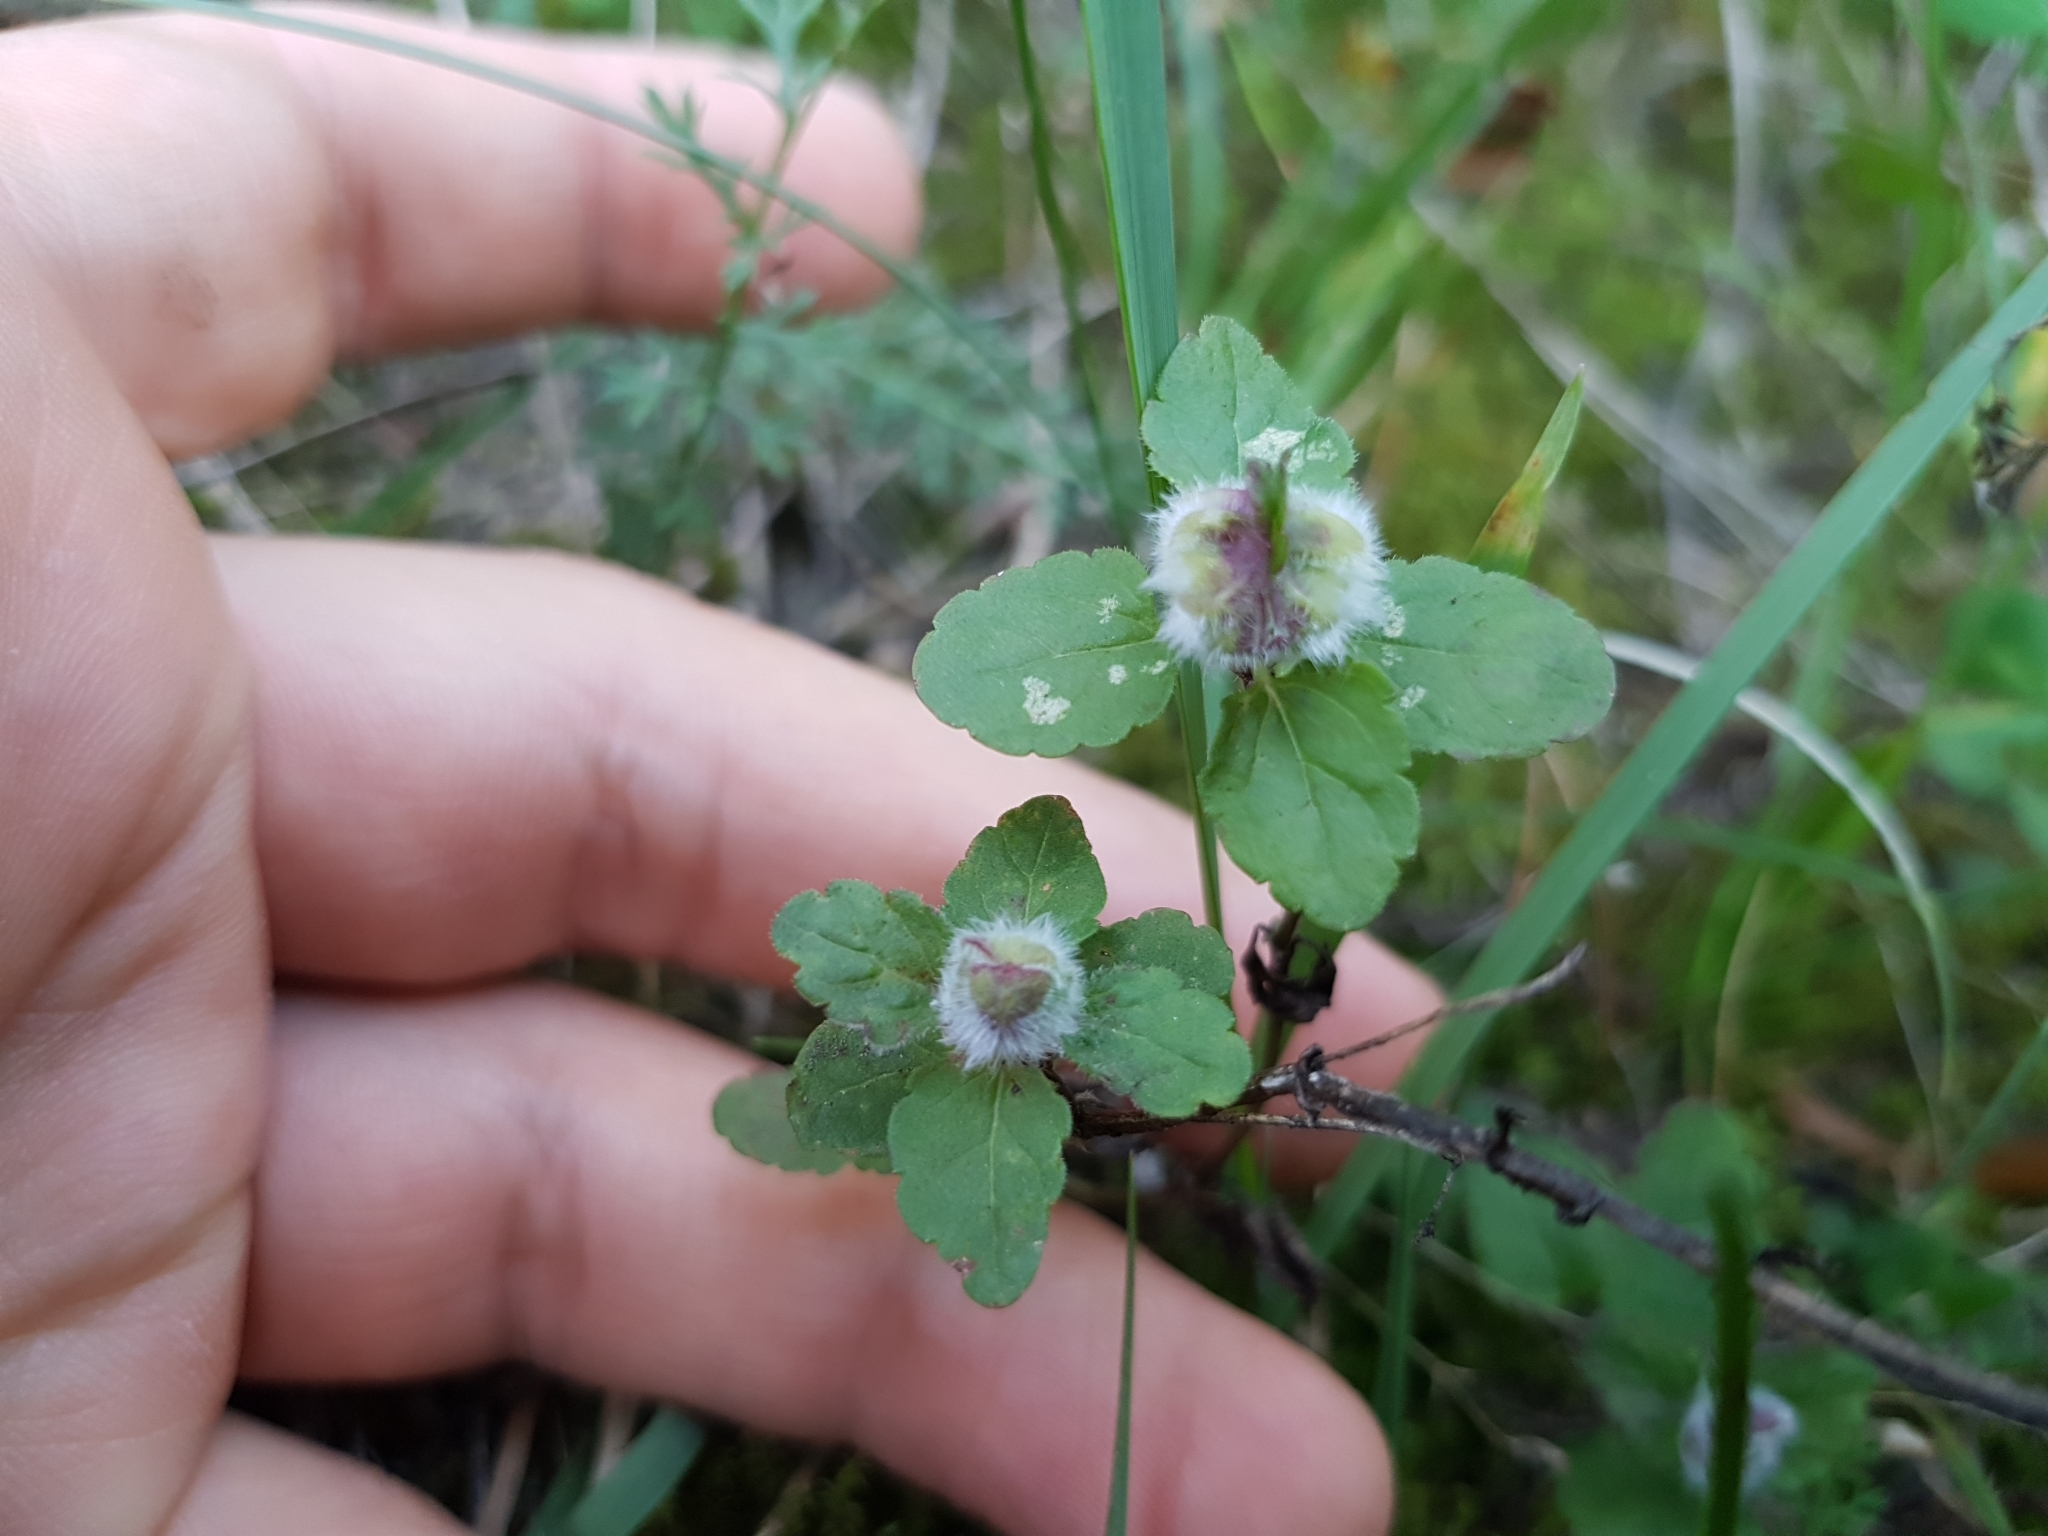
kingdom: Plantae
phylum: Tracheophyta
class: Magnoliopsida
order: Lamiales
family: Plantaginaceae
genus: Veronica
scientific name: Veronica chamaedrys
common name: Germander speedwell
